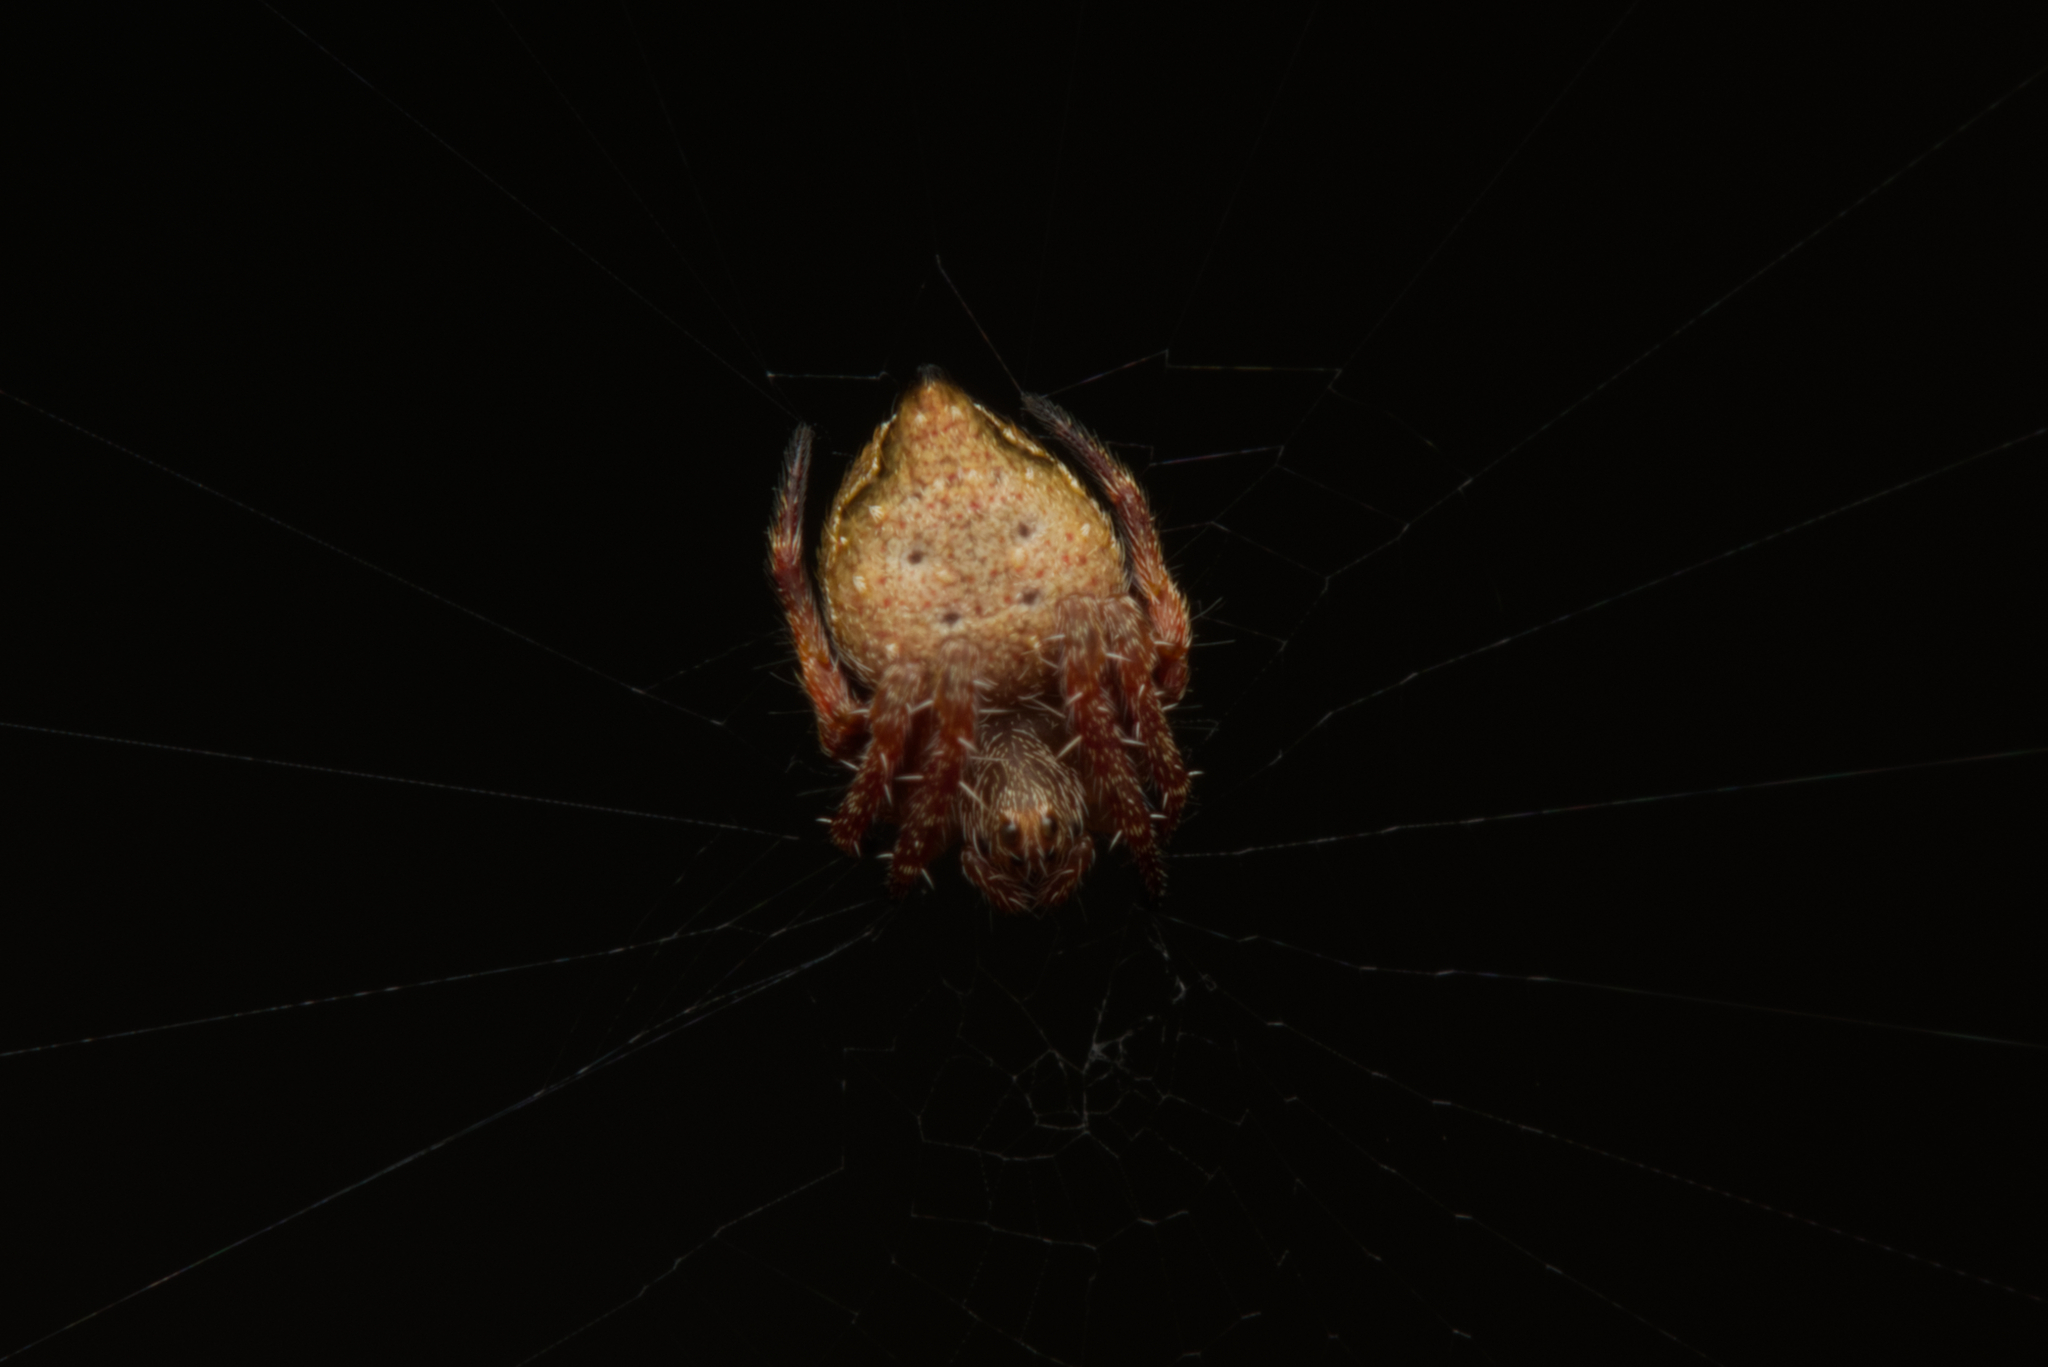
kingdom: Animalia
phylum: Arthropoda
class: Arachnida
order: Araneae
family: Araneidae
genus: Araneus
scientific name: Araneus acuminatus
